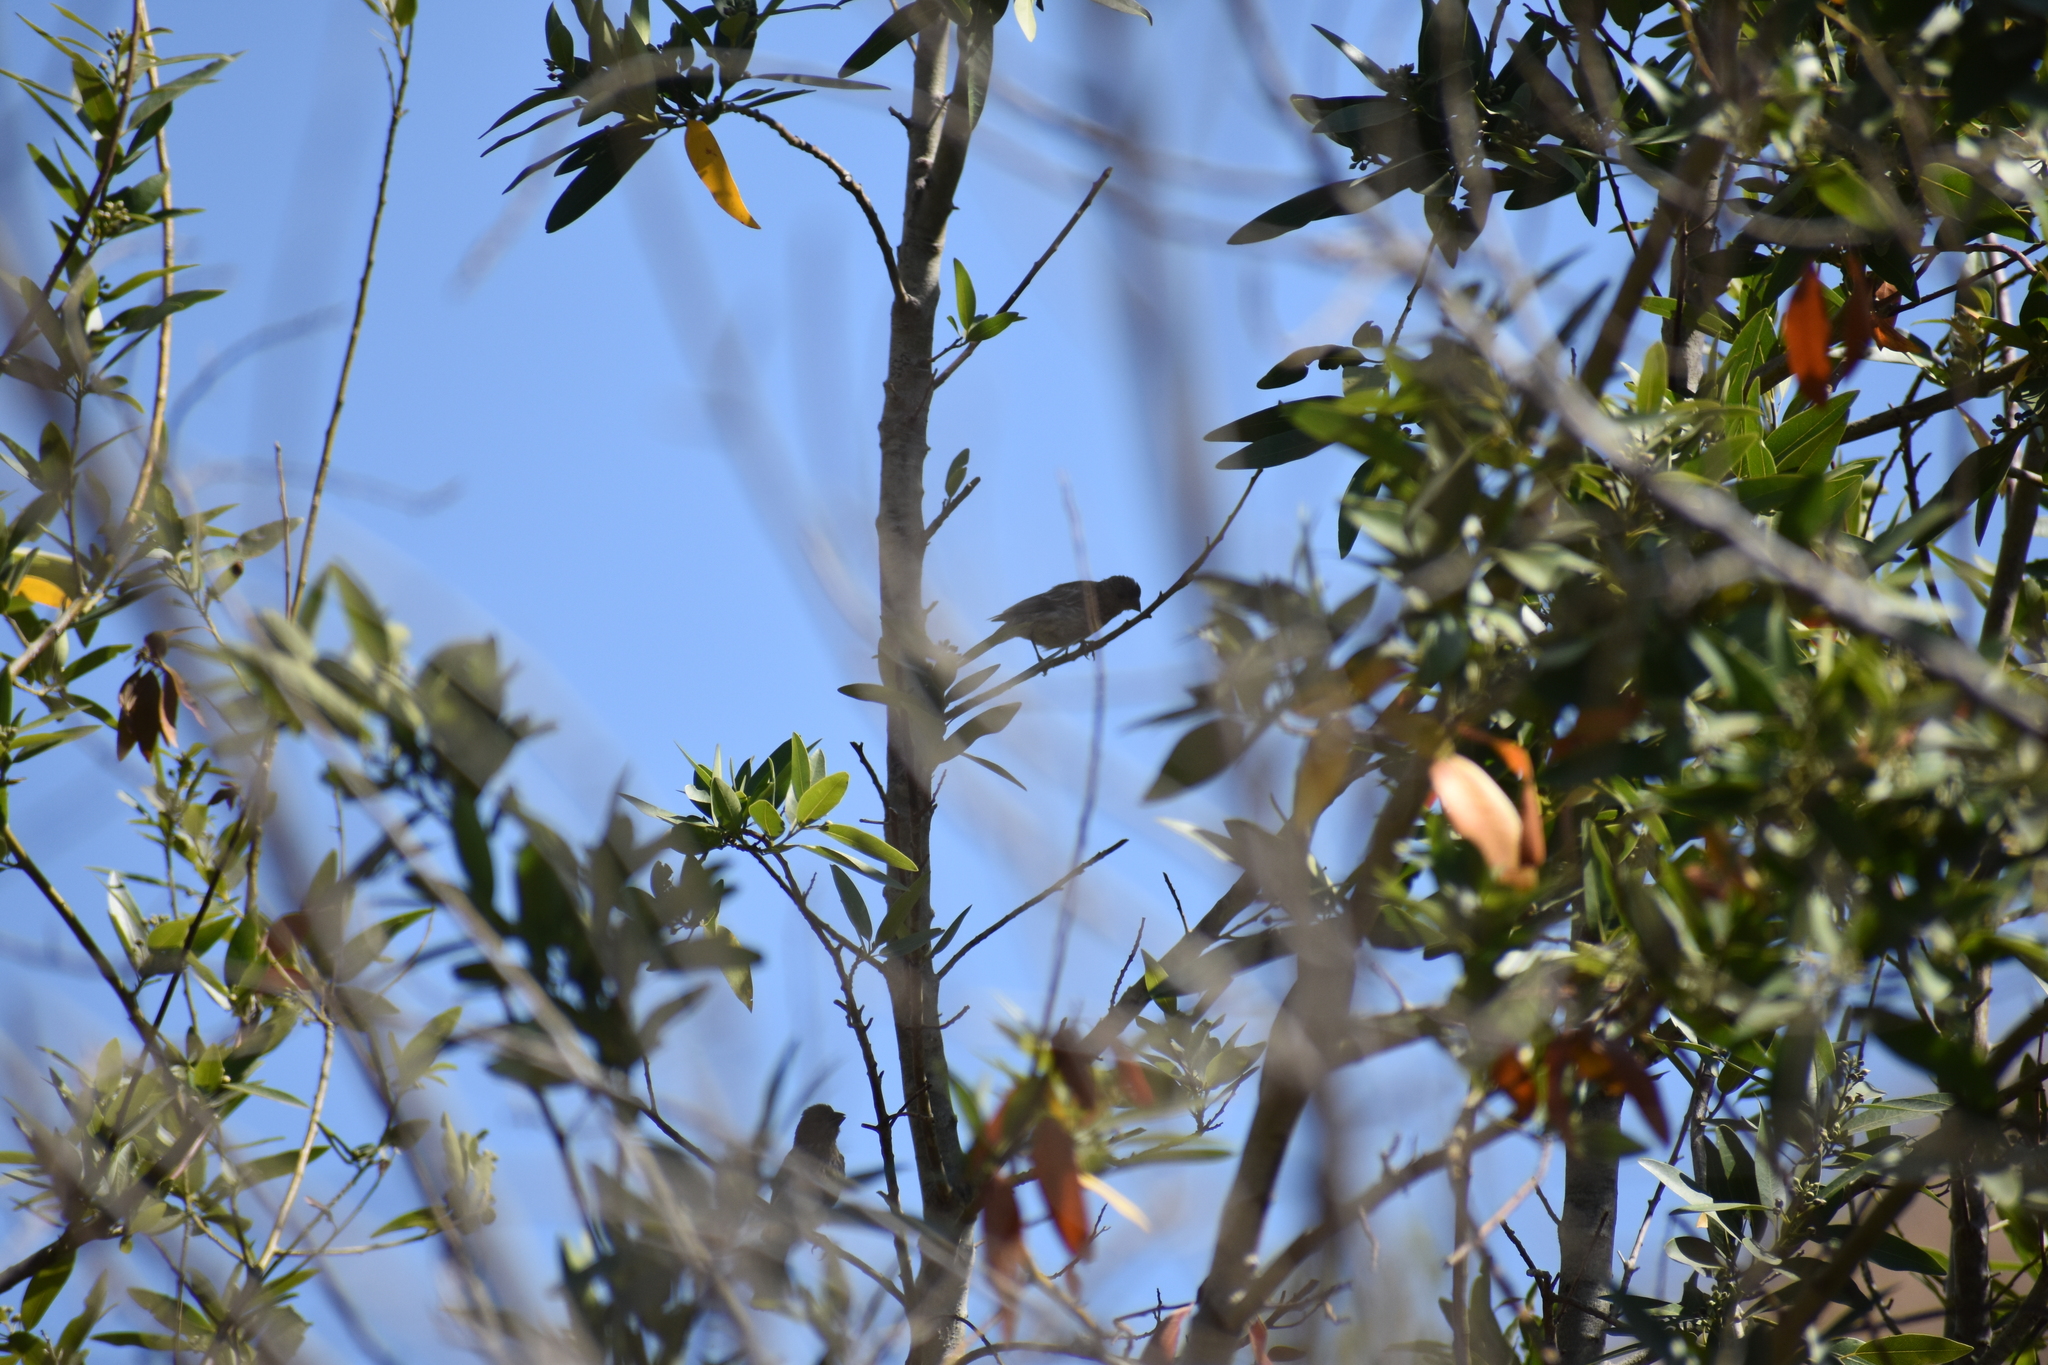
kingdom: Animalia
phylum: Chordata
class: Aves
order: Passeriformes
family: Fringillidae
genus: Haemorhous
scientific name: Haemorhous mexicanus
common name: House finch
